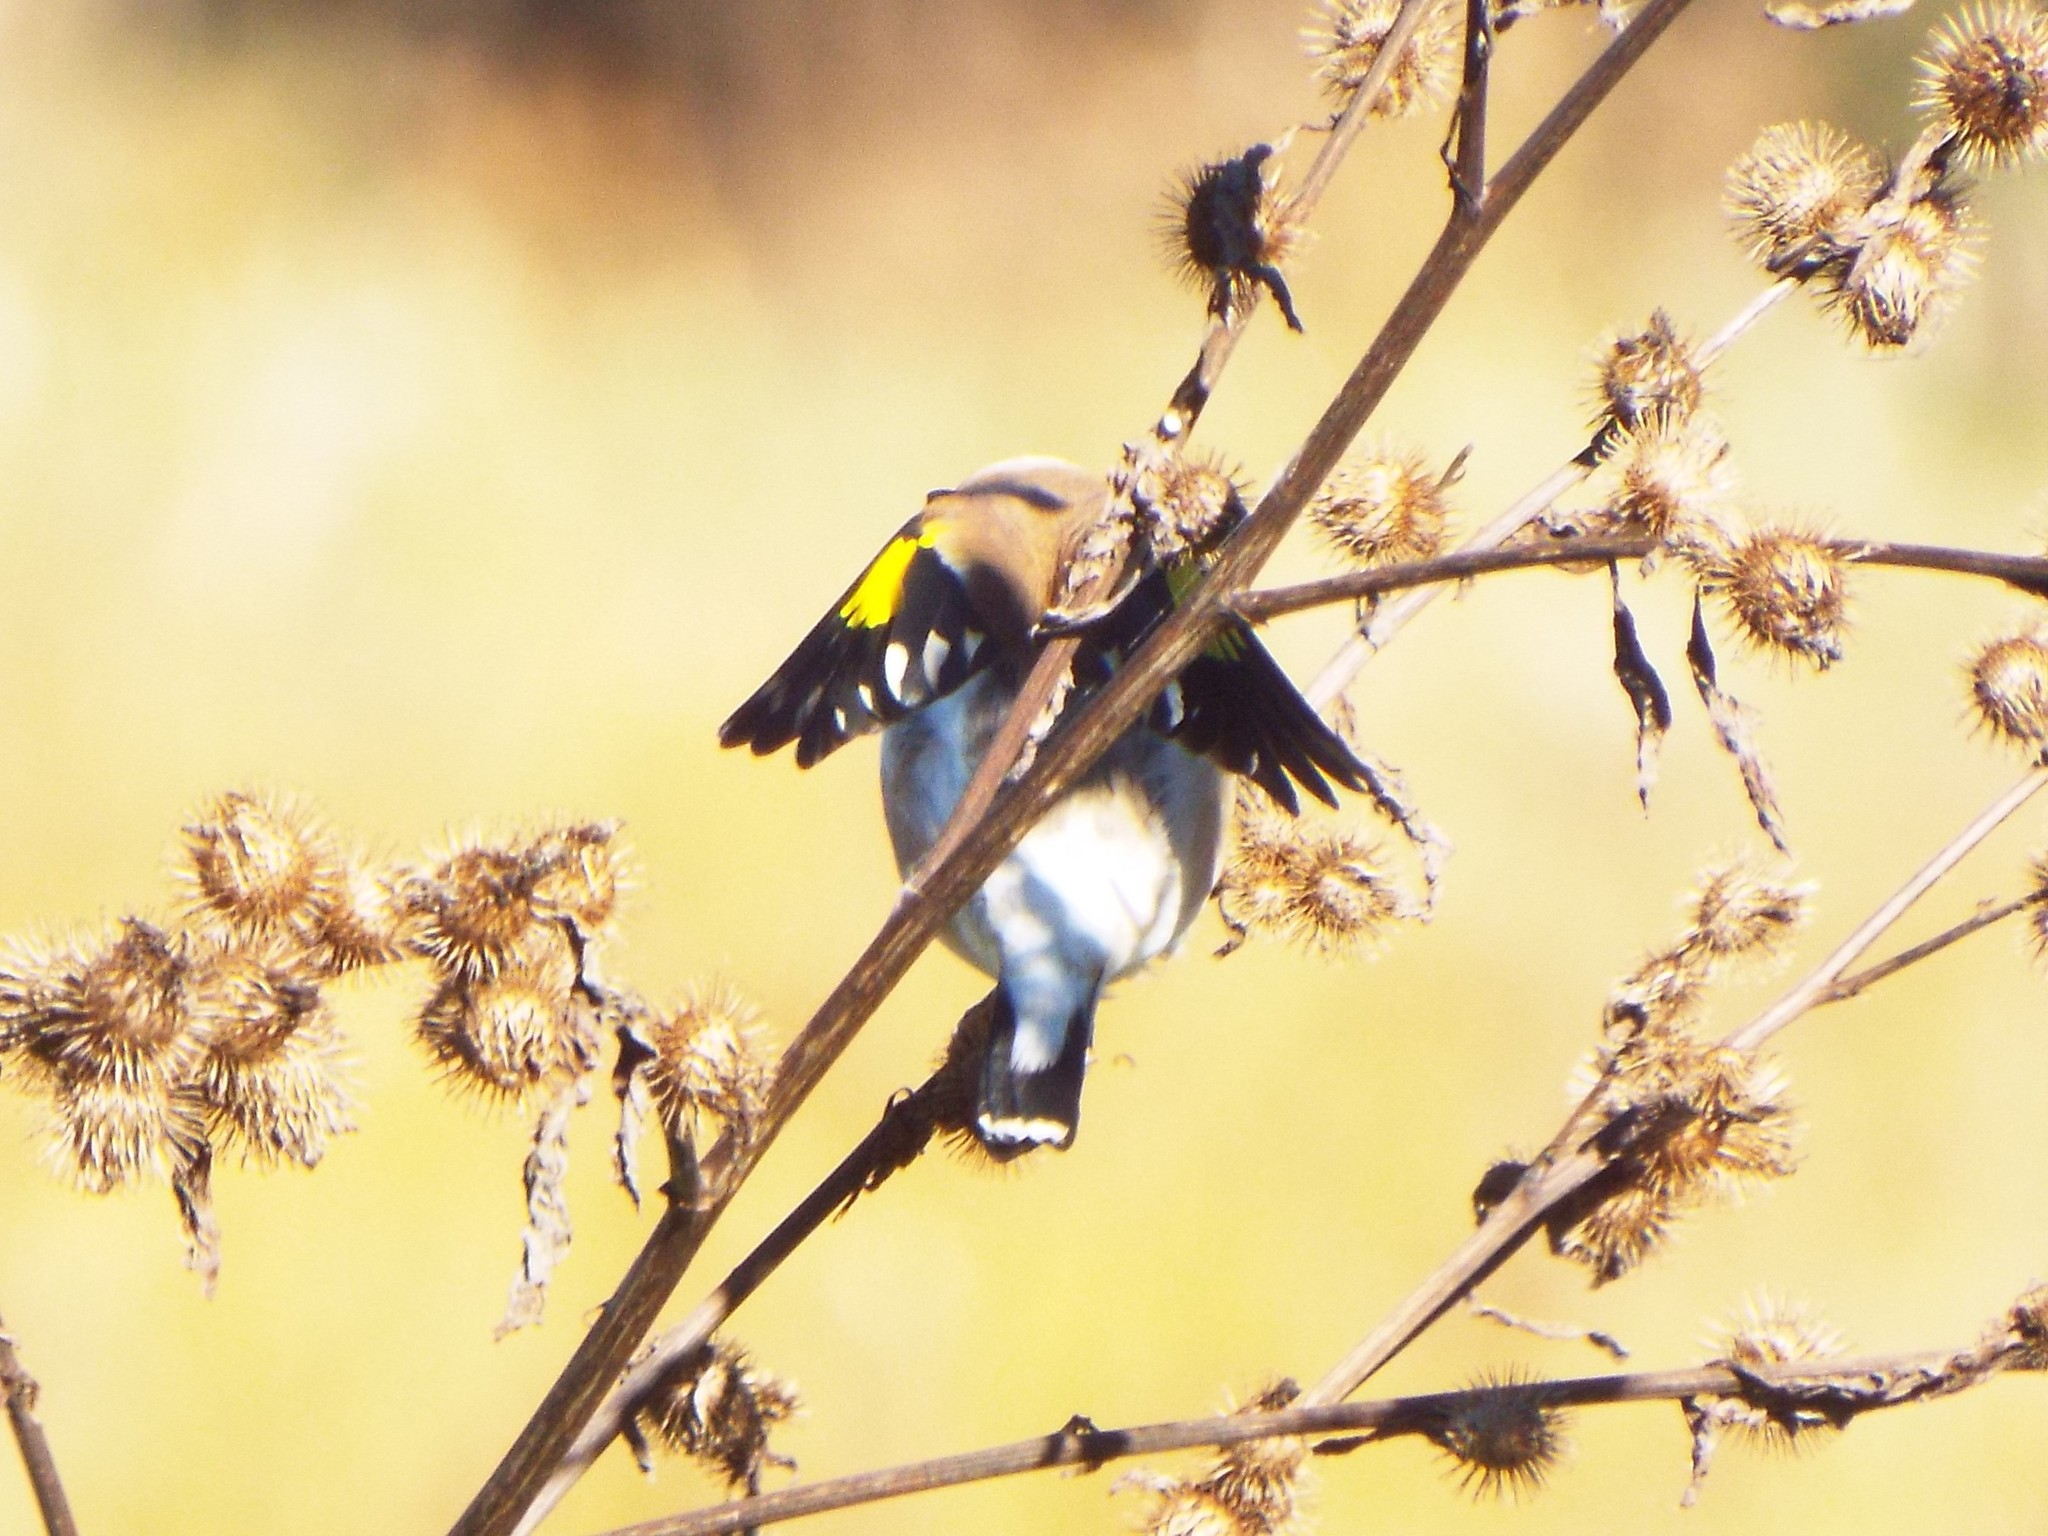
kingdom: Animalia
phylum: Chordata
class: Aves
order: Passeriformes
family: Fringillidae
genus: Carduelis
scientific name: Carduelis carduelis
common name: European goldfinch
